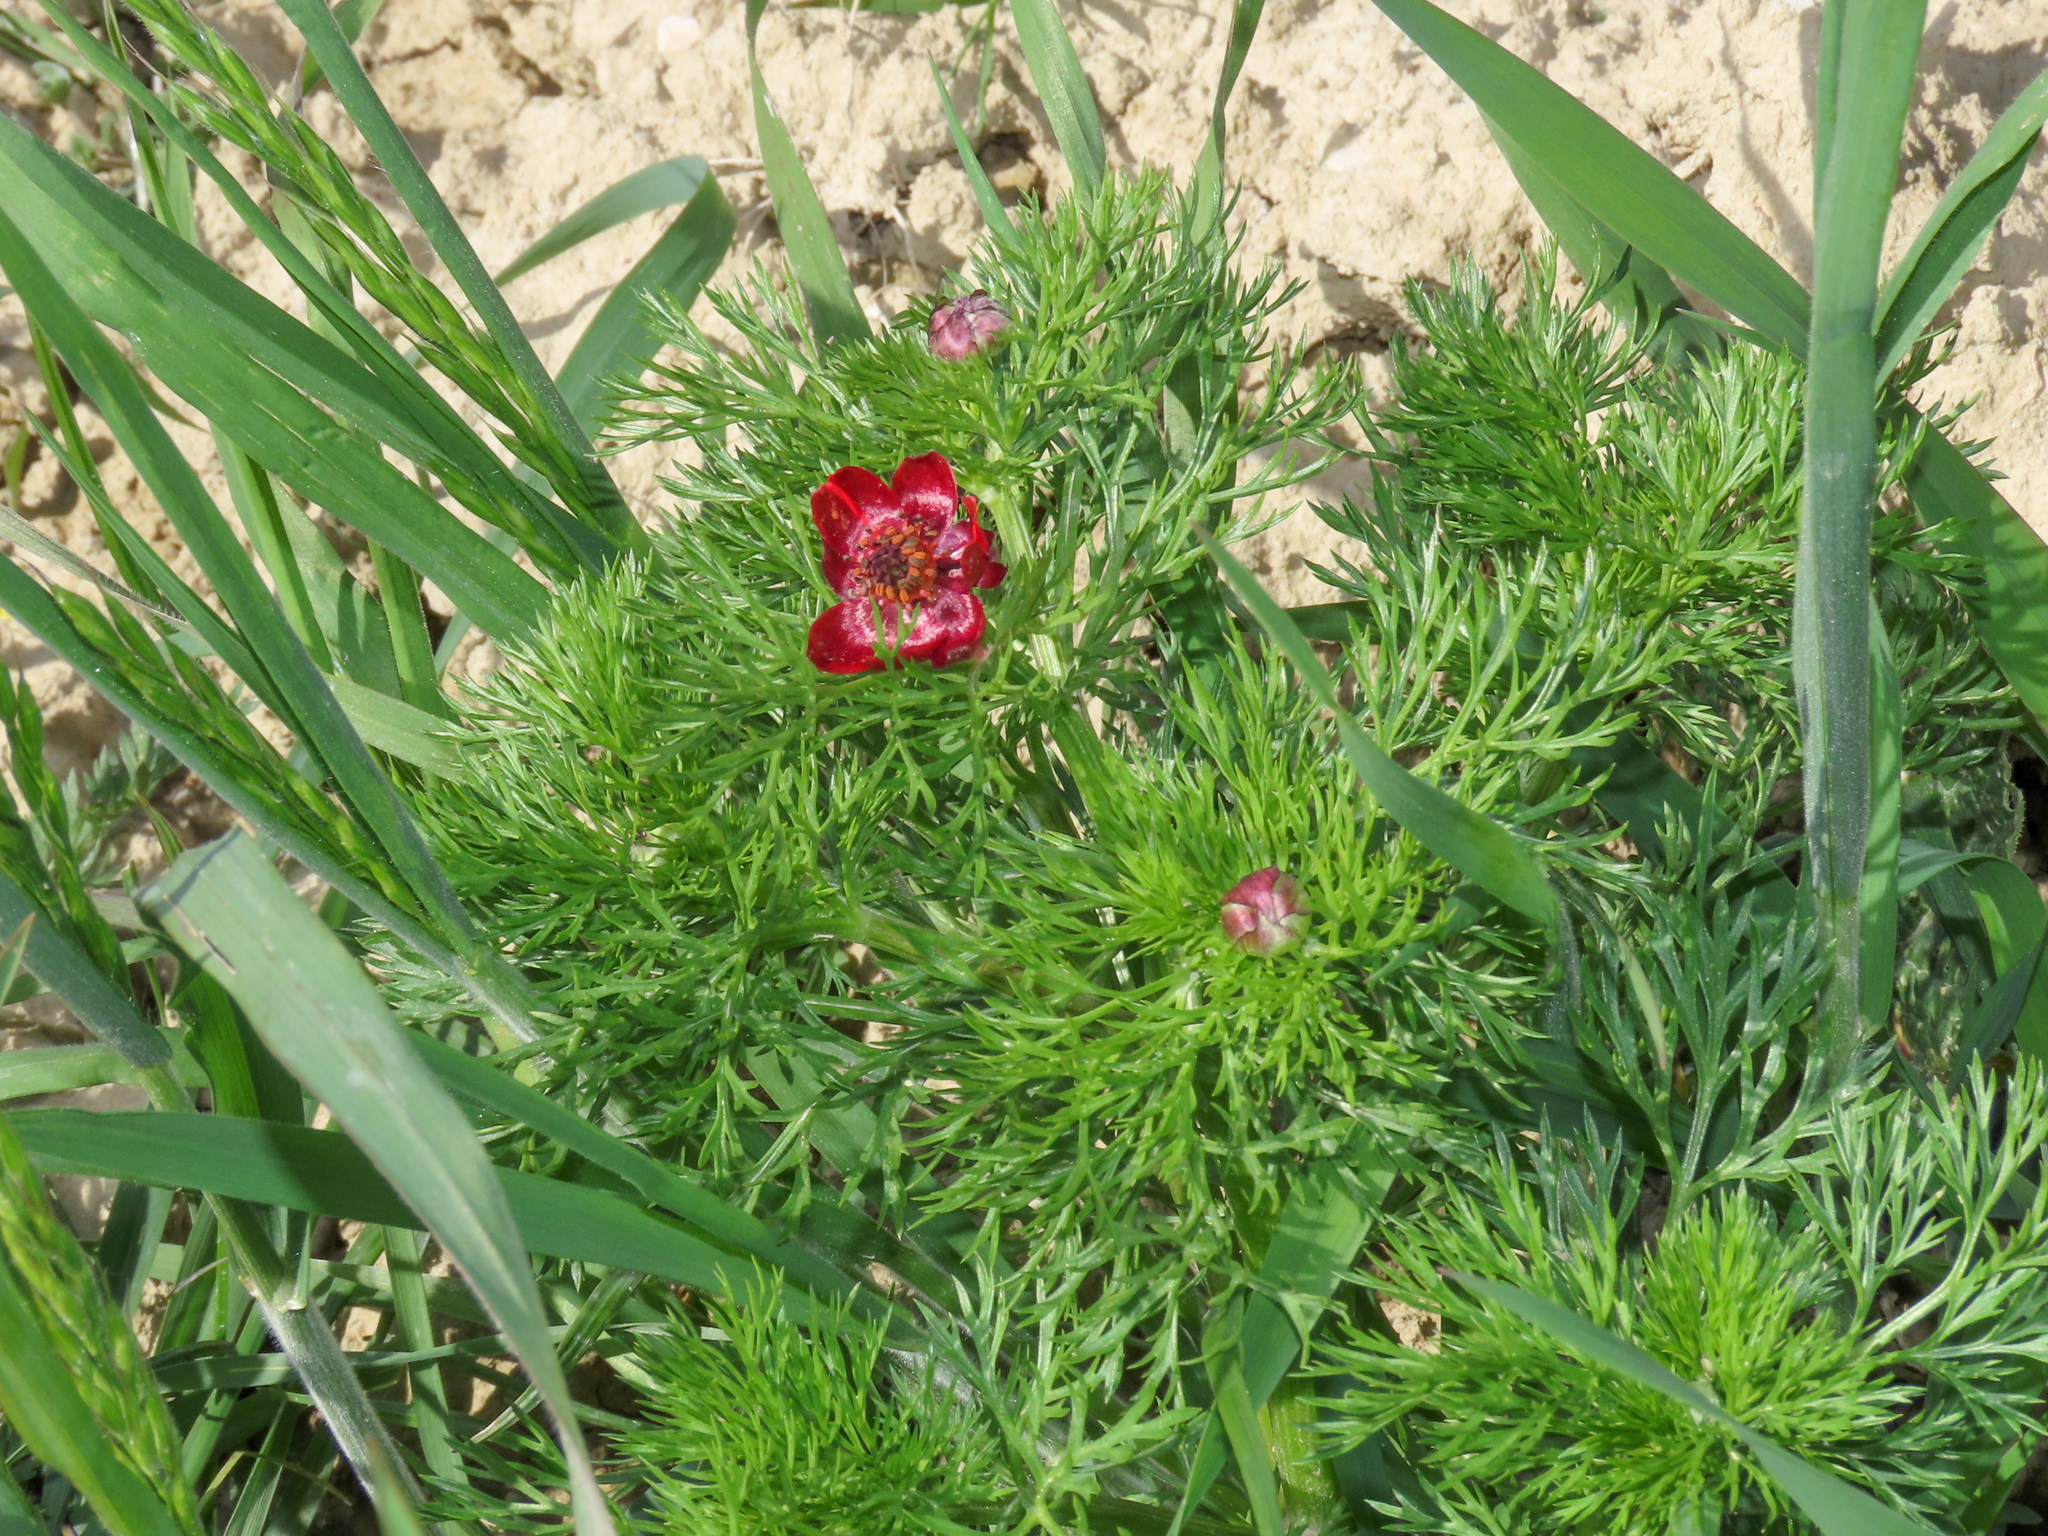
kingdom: Plantae
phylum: Tracheophyta
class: Magnoliopsida
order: Ranunculales
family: Ranunculaceae
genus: Adonis
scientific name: Adonis annua
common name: Pheasant's-eye
